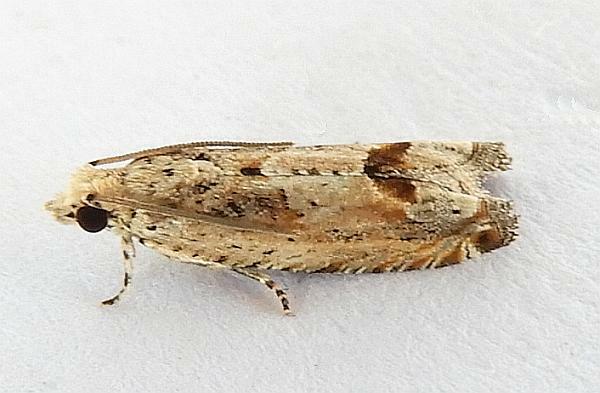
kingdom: Animalia
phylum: Arthropoda
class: Insecta
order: Lepidoptera
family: Tortricidae
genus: Crocidosema
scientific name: Crocidosema unica
